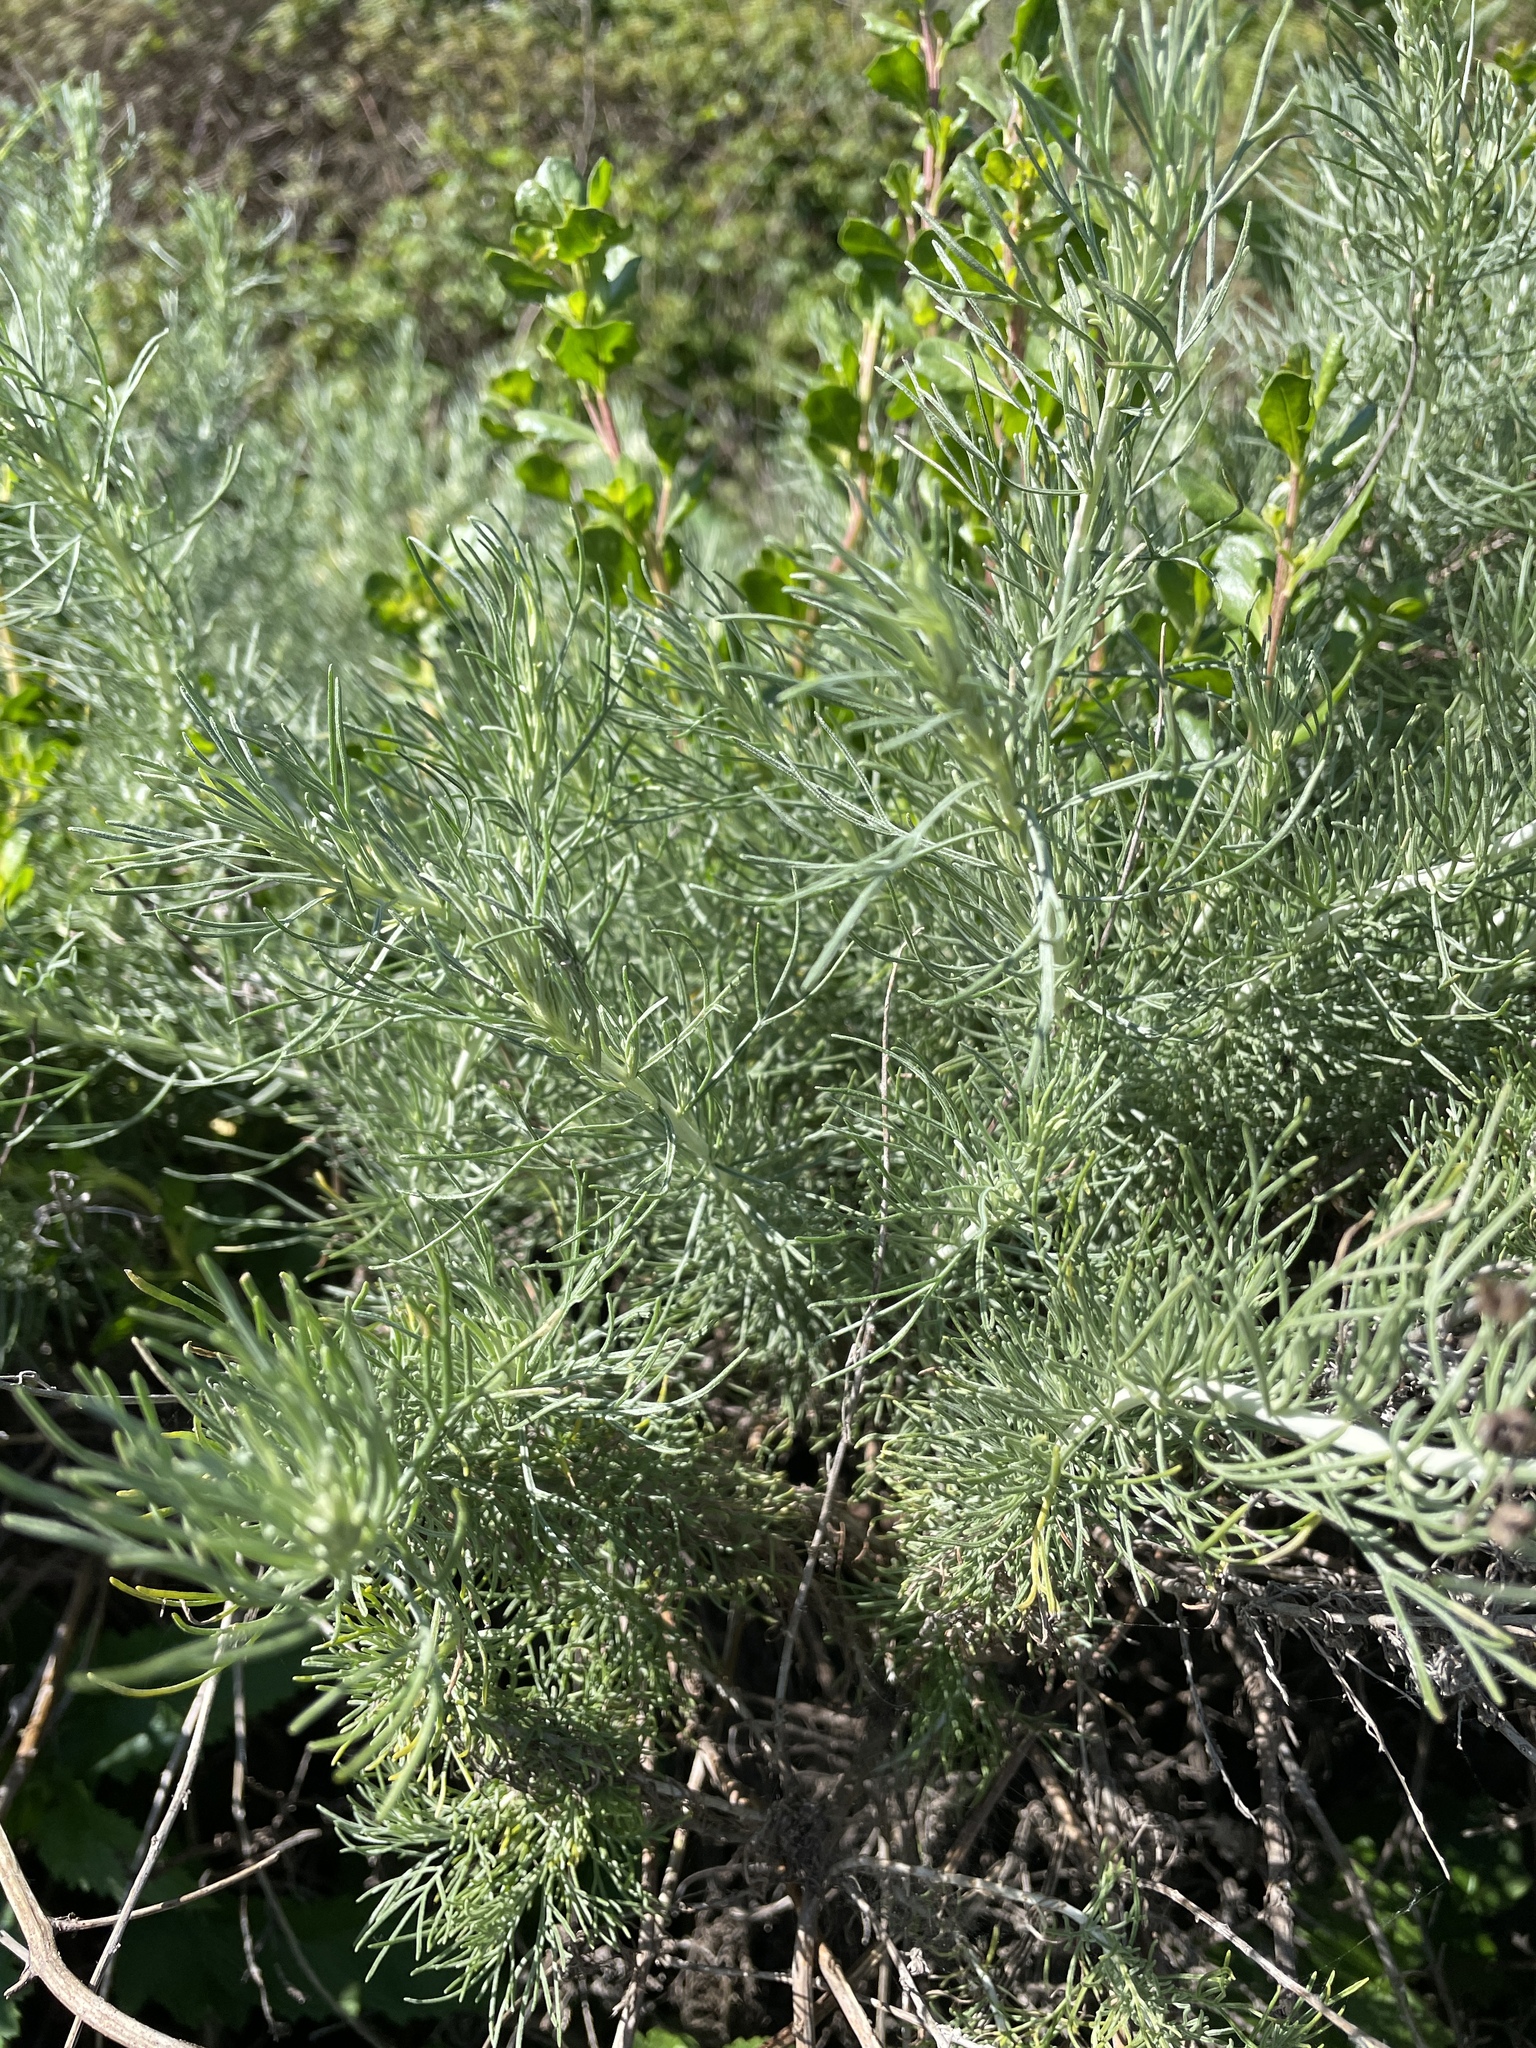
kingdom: Plantae
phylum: Tracheophyta
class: Magnoliopsida
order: Asterales
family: Asteraceae
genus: Artemisia
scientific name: Artemisia californica
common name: California sagebrush
